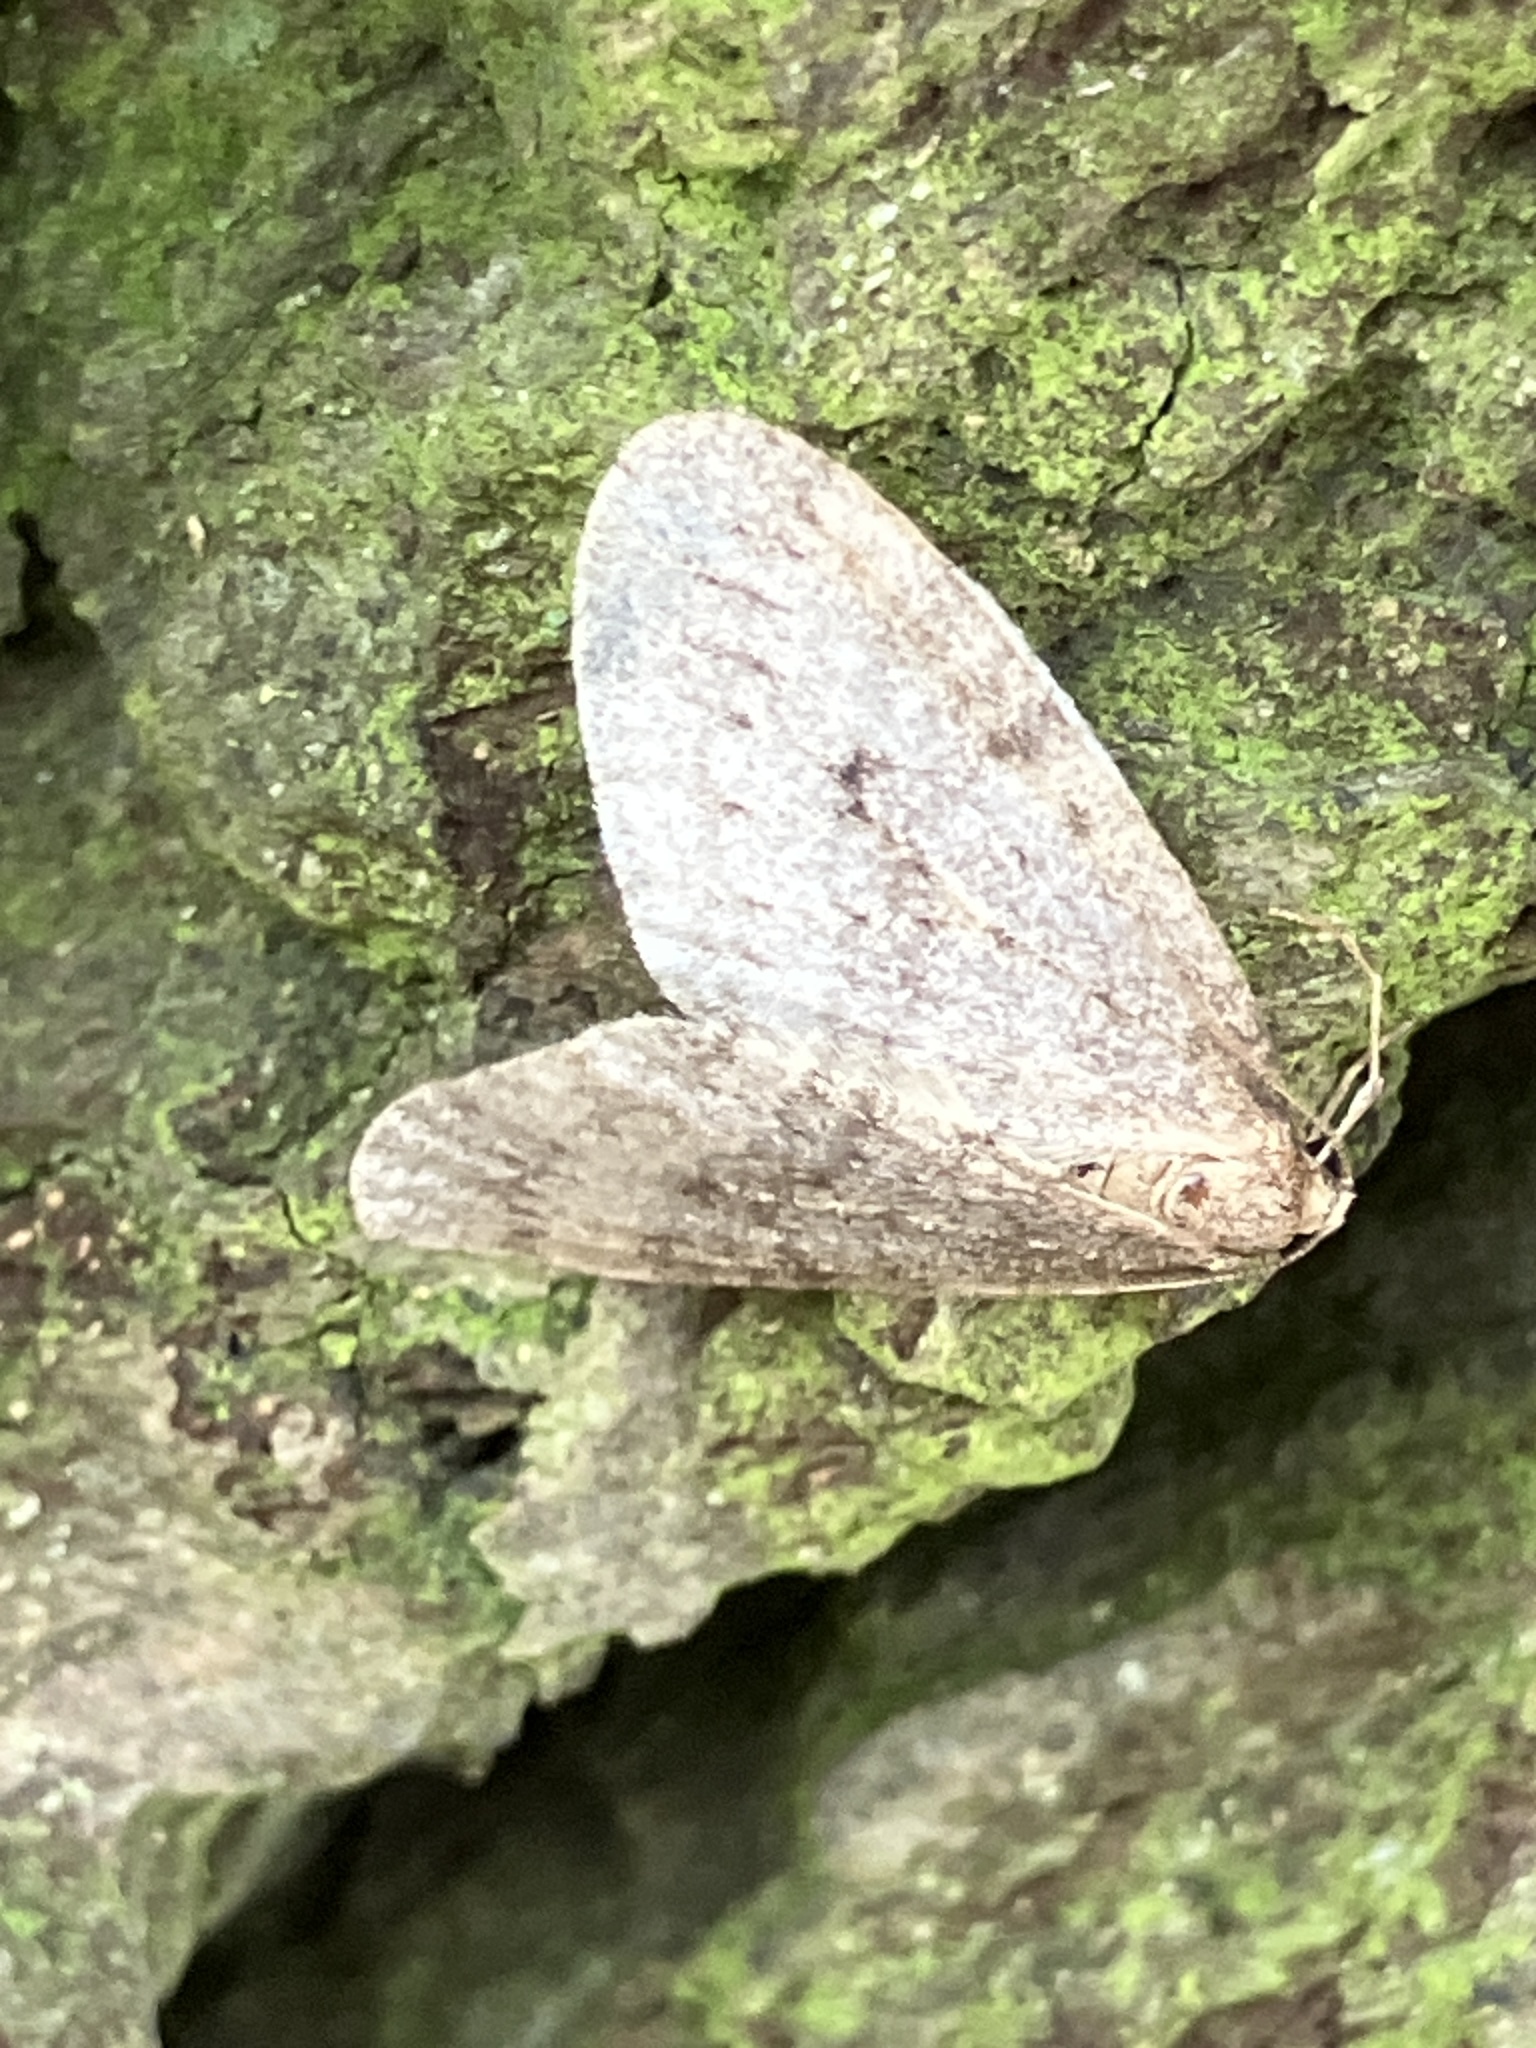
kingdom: Animalia
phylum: Arthropoda
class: Insecta
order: Lepidoptera
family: Geometridae
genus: Operophtera
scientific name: Operophtera brumata
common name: Winter moth
